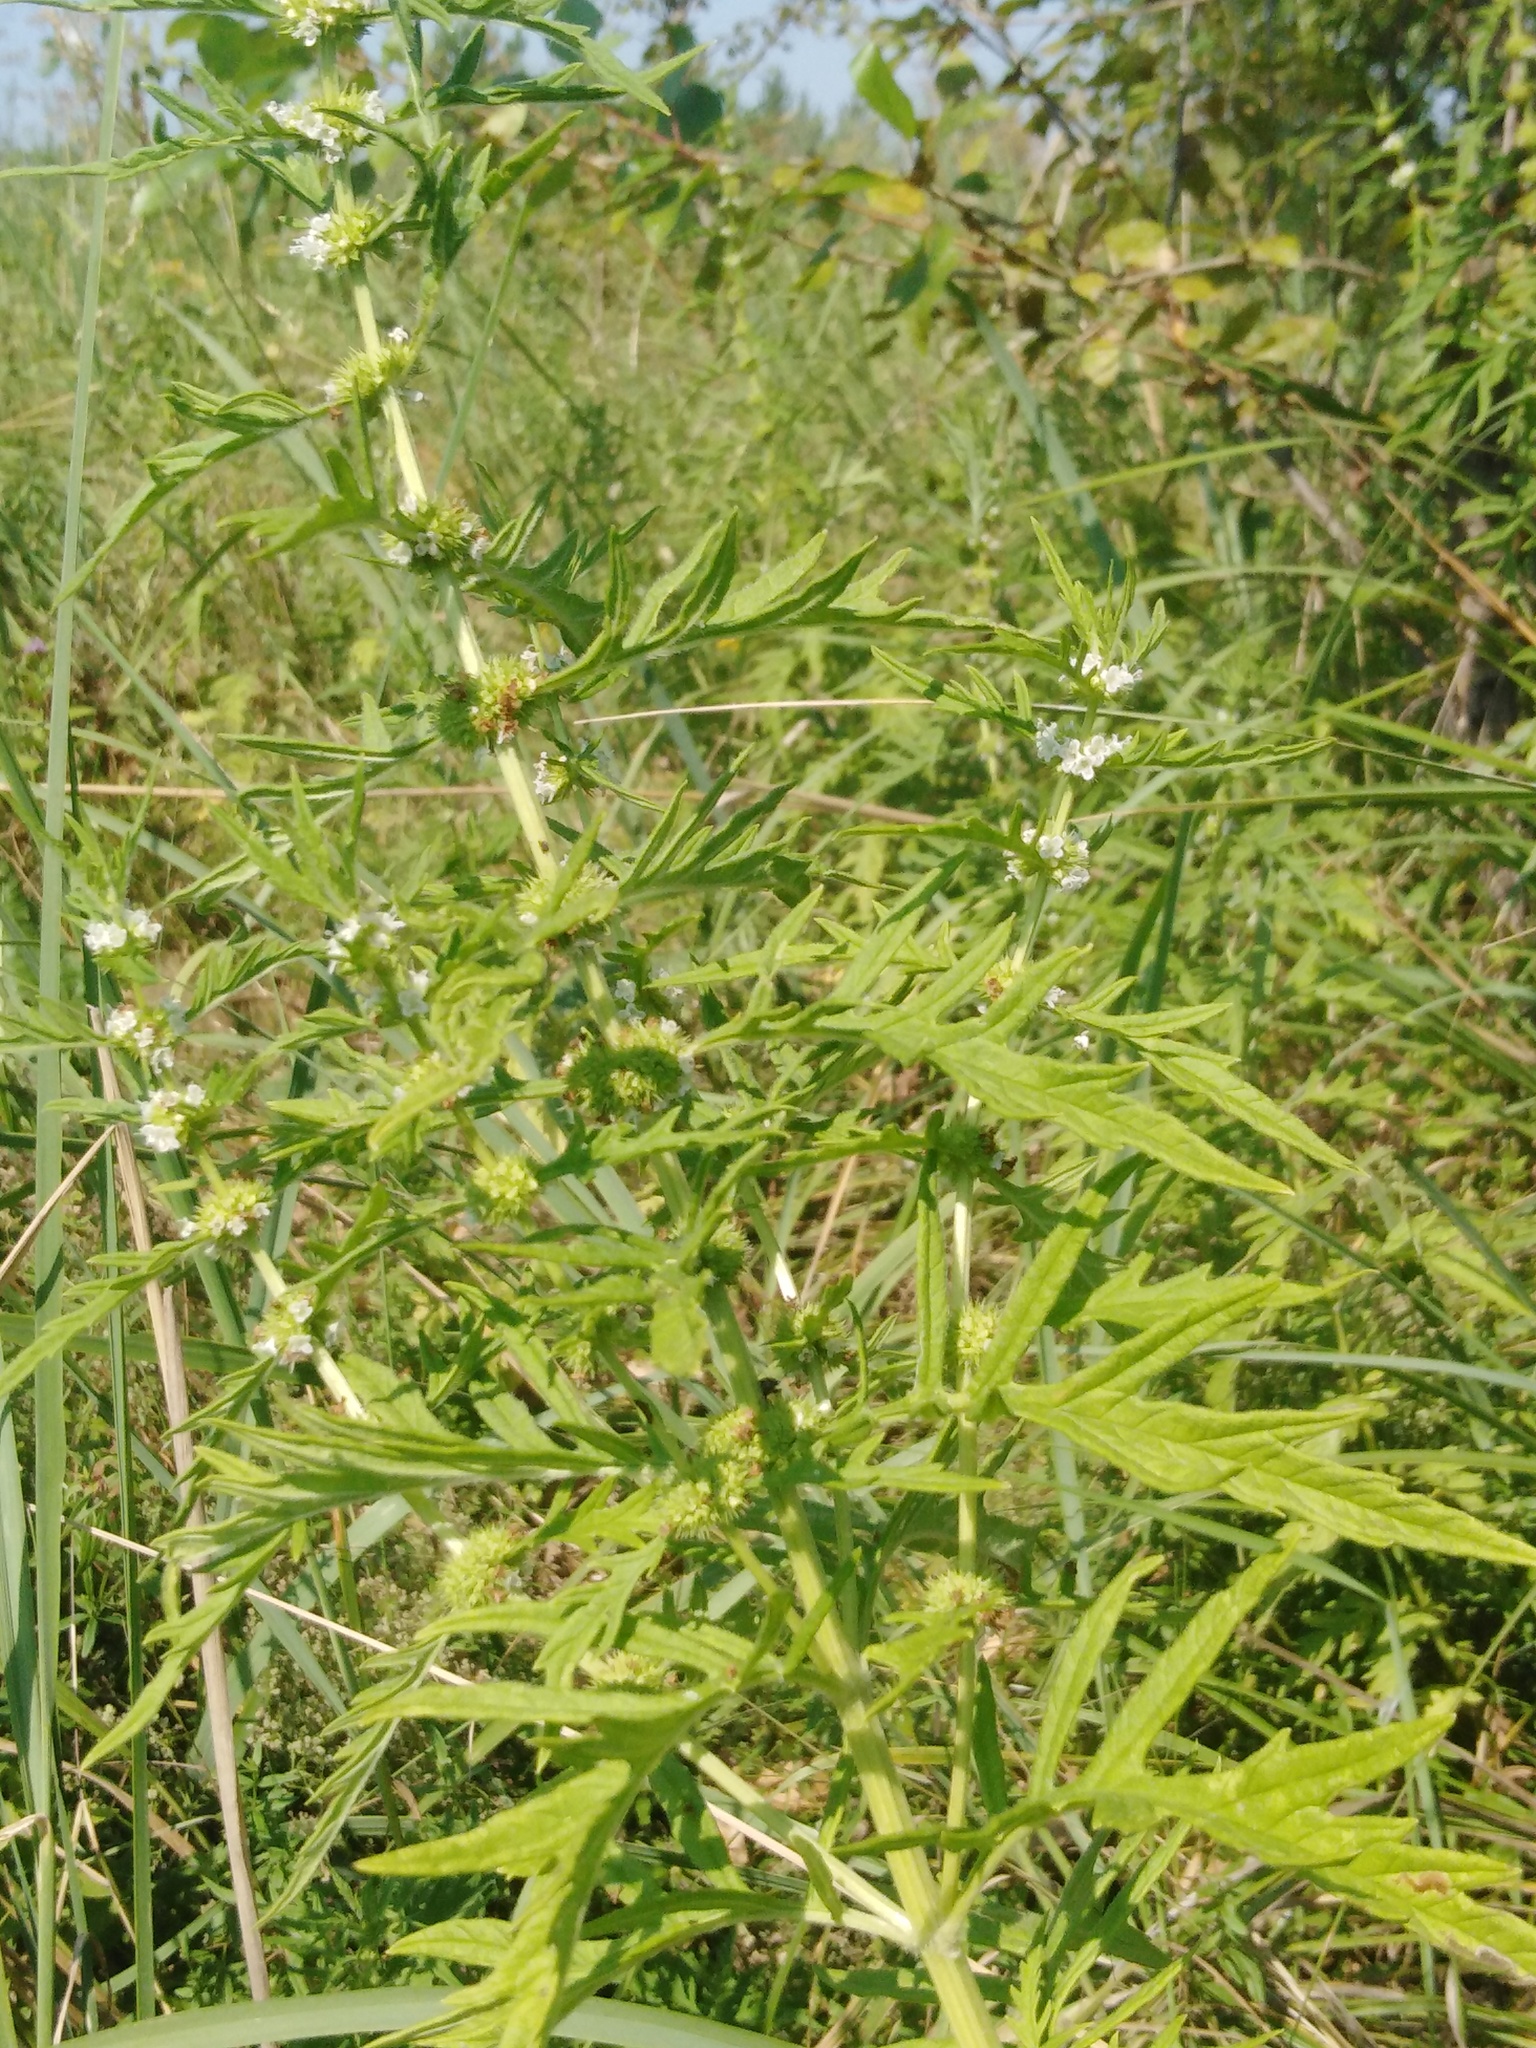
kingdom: Plantae
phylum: Tracheophyta
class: Magnoliopsida
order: Lamiales
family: Lamiaceae
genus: Lycopus
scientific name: Lycopus exaltatus
